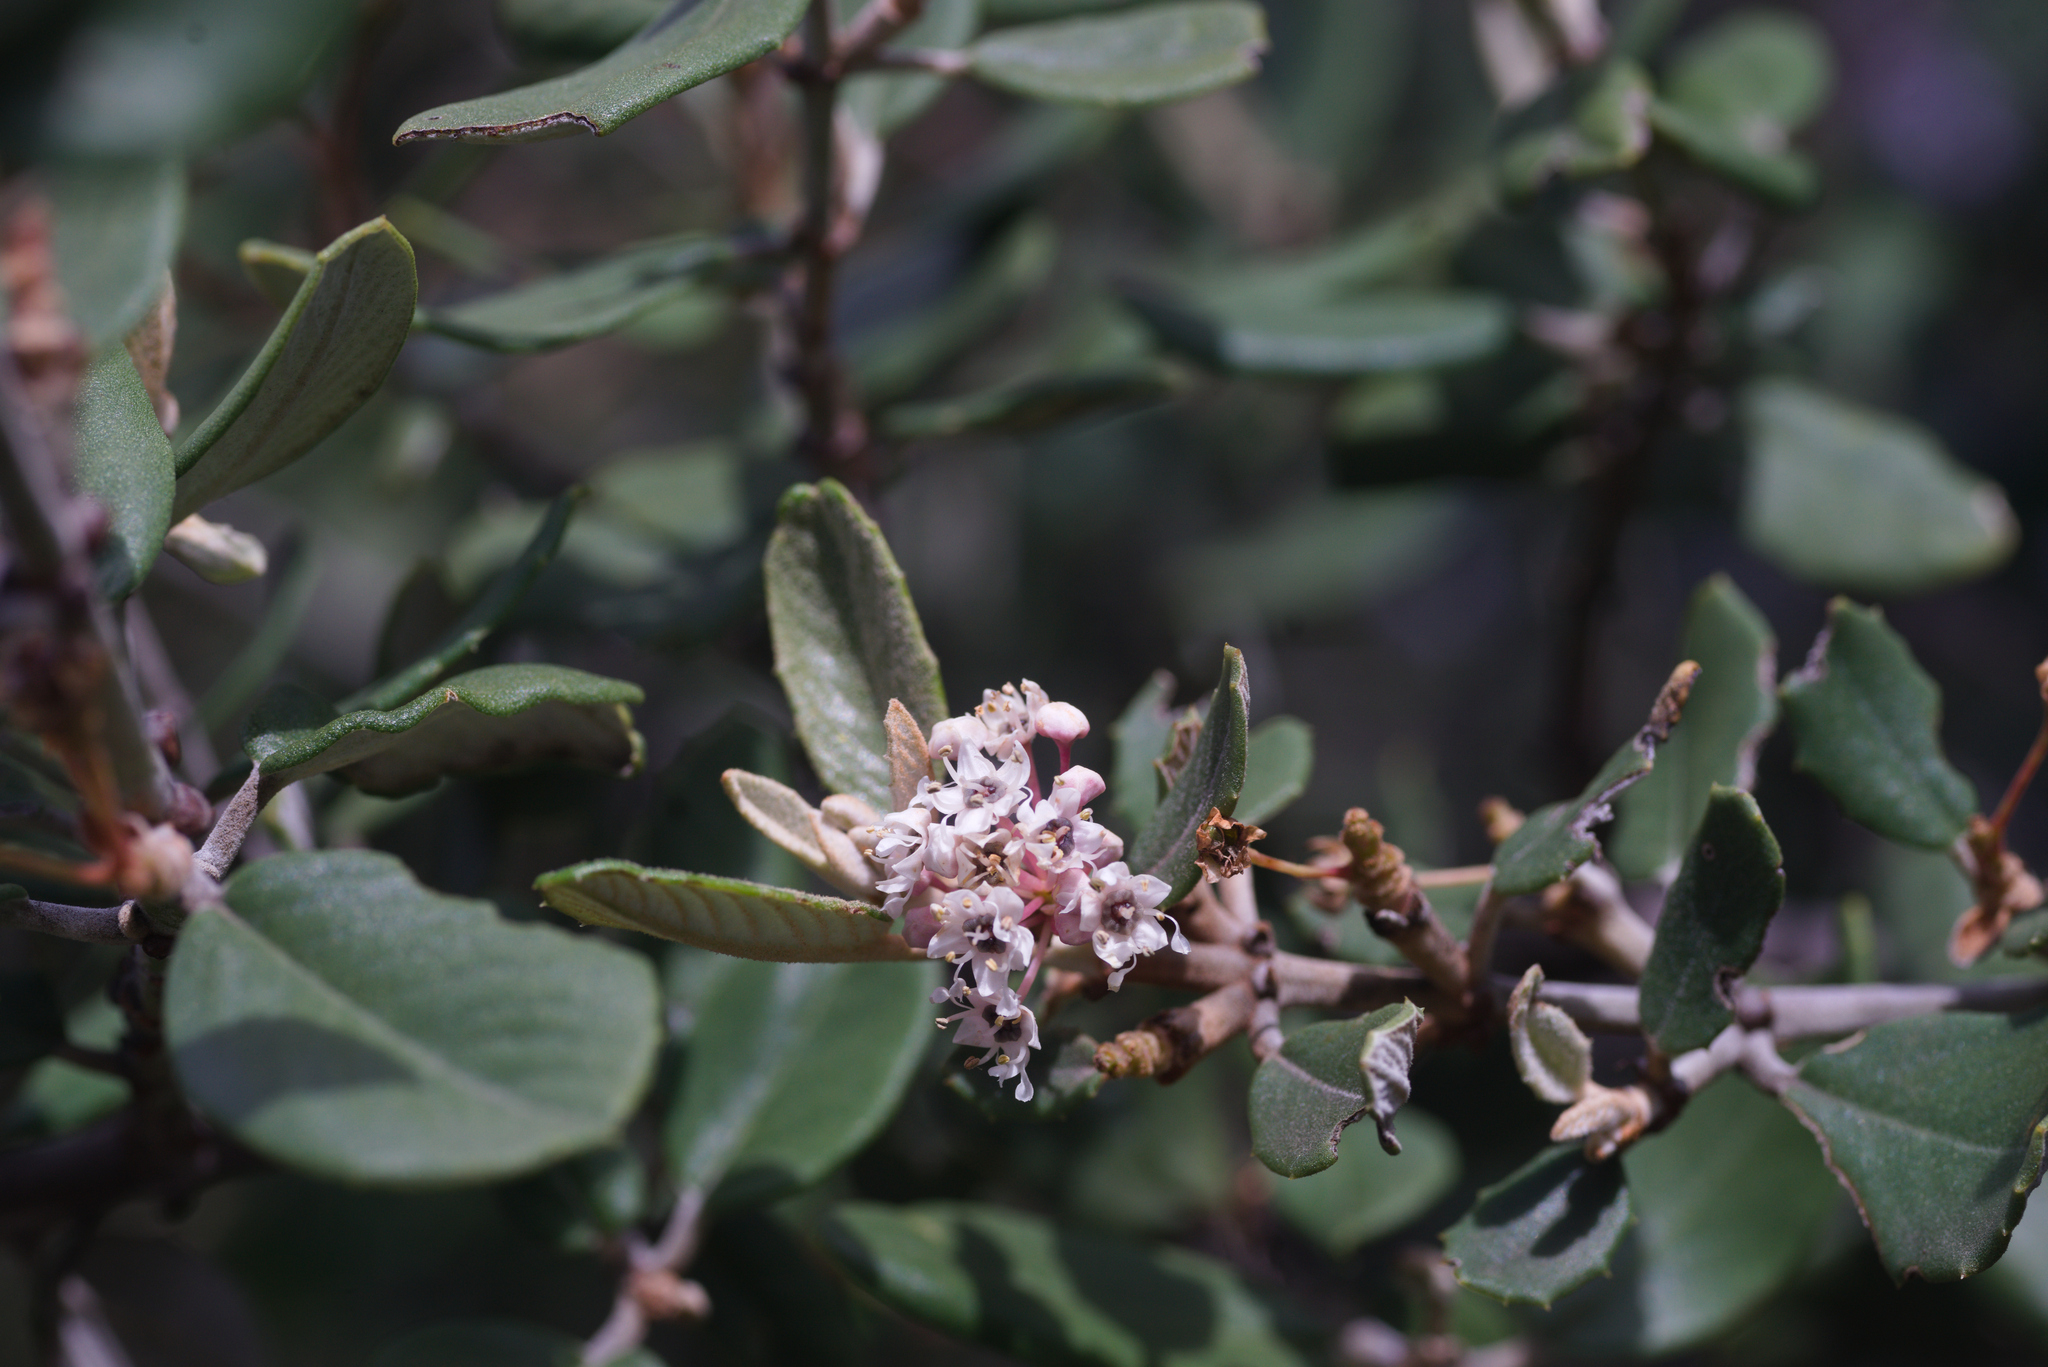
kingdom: Plantae
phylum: Tracheophyta
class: Magnoliopsida
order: Rosales
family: Rhamnaceae
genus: Ceanothus
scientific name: Ceanothus crassifolius
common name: Hoaryleaf ceanothus
